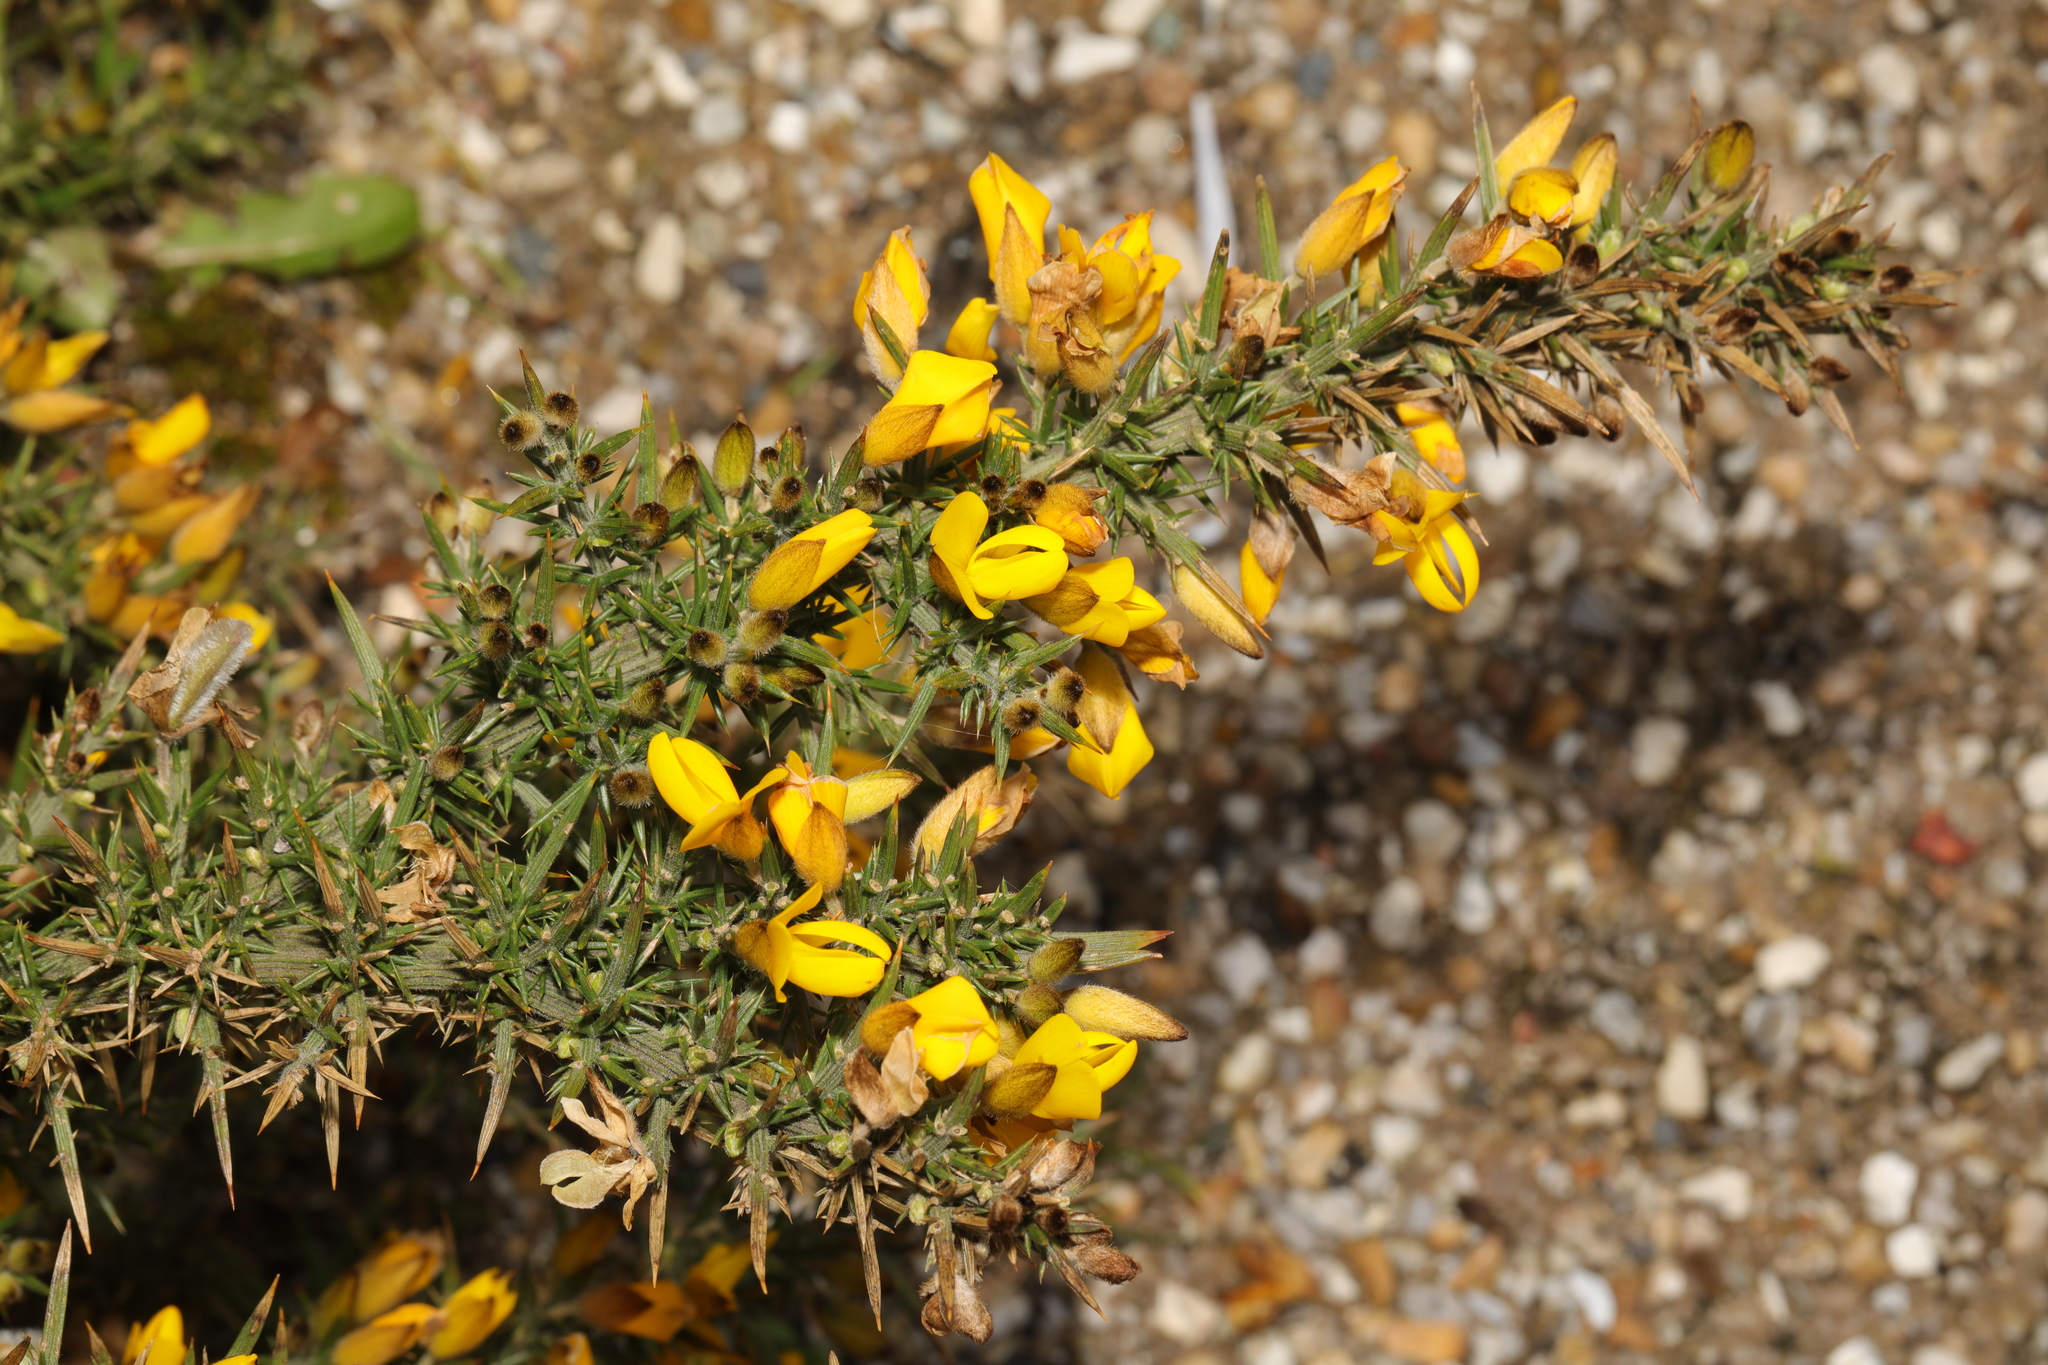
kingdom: Plantae
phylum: Tracheophyta
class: Magnoliopsida
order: Fabales
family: Fabaceae
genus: Ulex
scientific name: Ulex europaeus
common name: Common gorse
